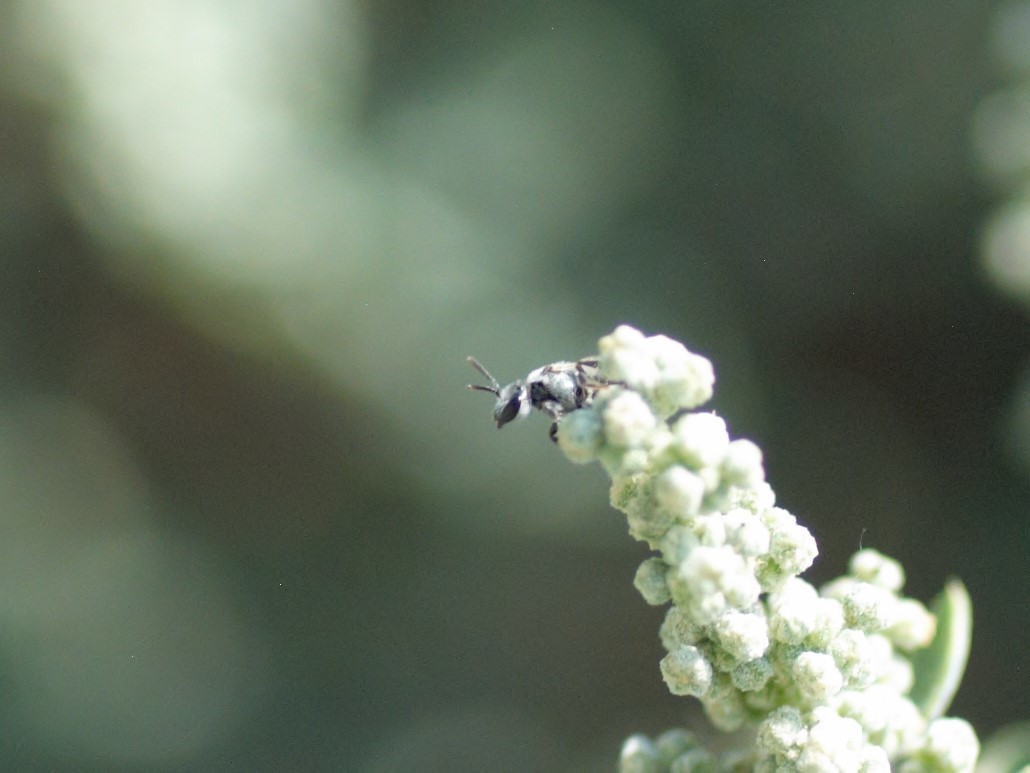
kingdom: Animalia
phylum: Arthropoda
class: Insecta
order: Hymenoptera
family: Halictidae
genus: Dialictus
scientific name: Dialictus
